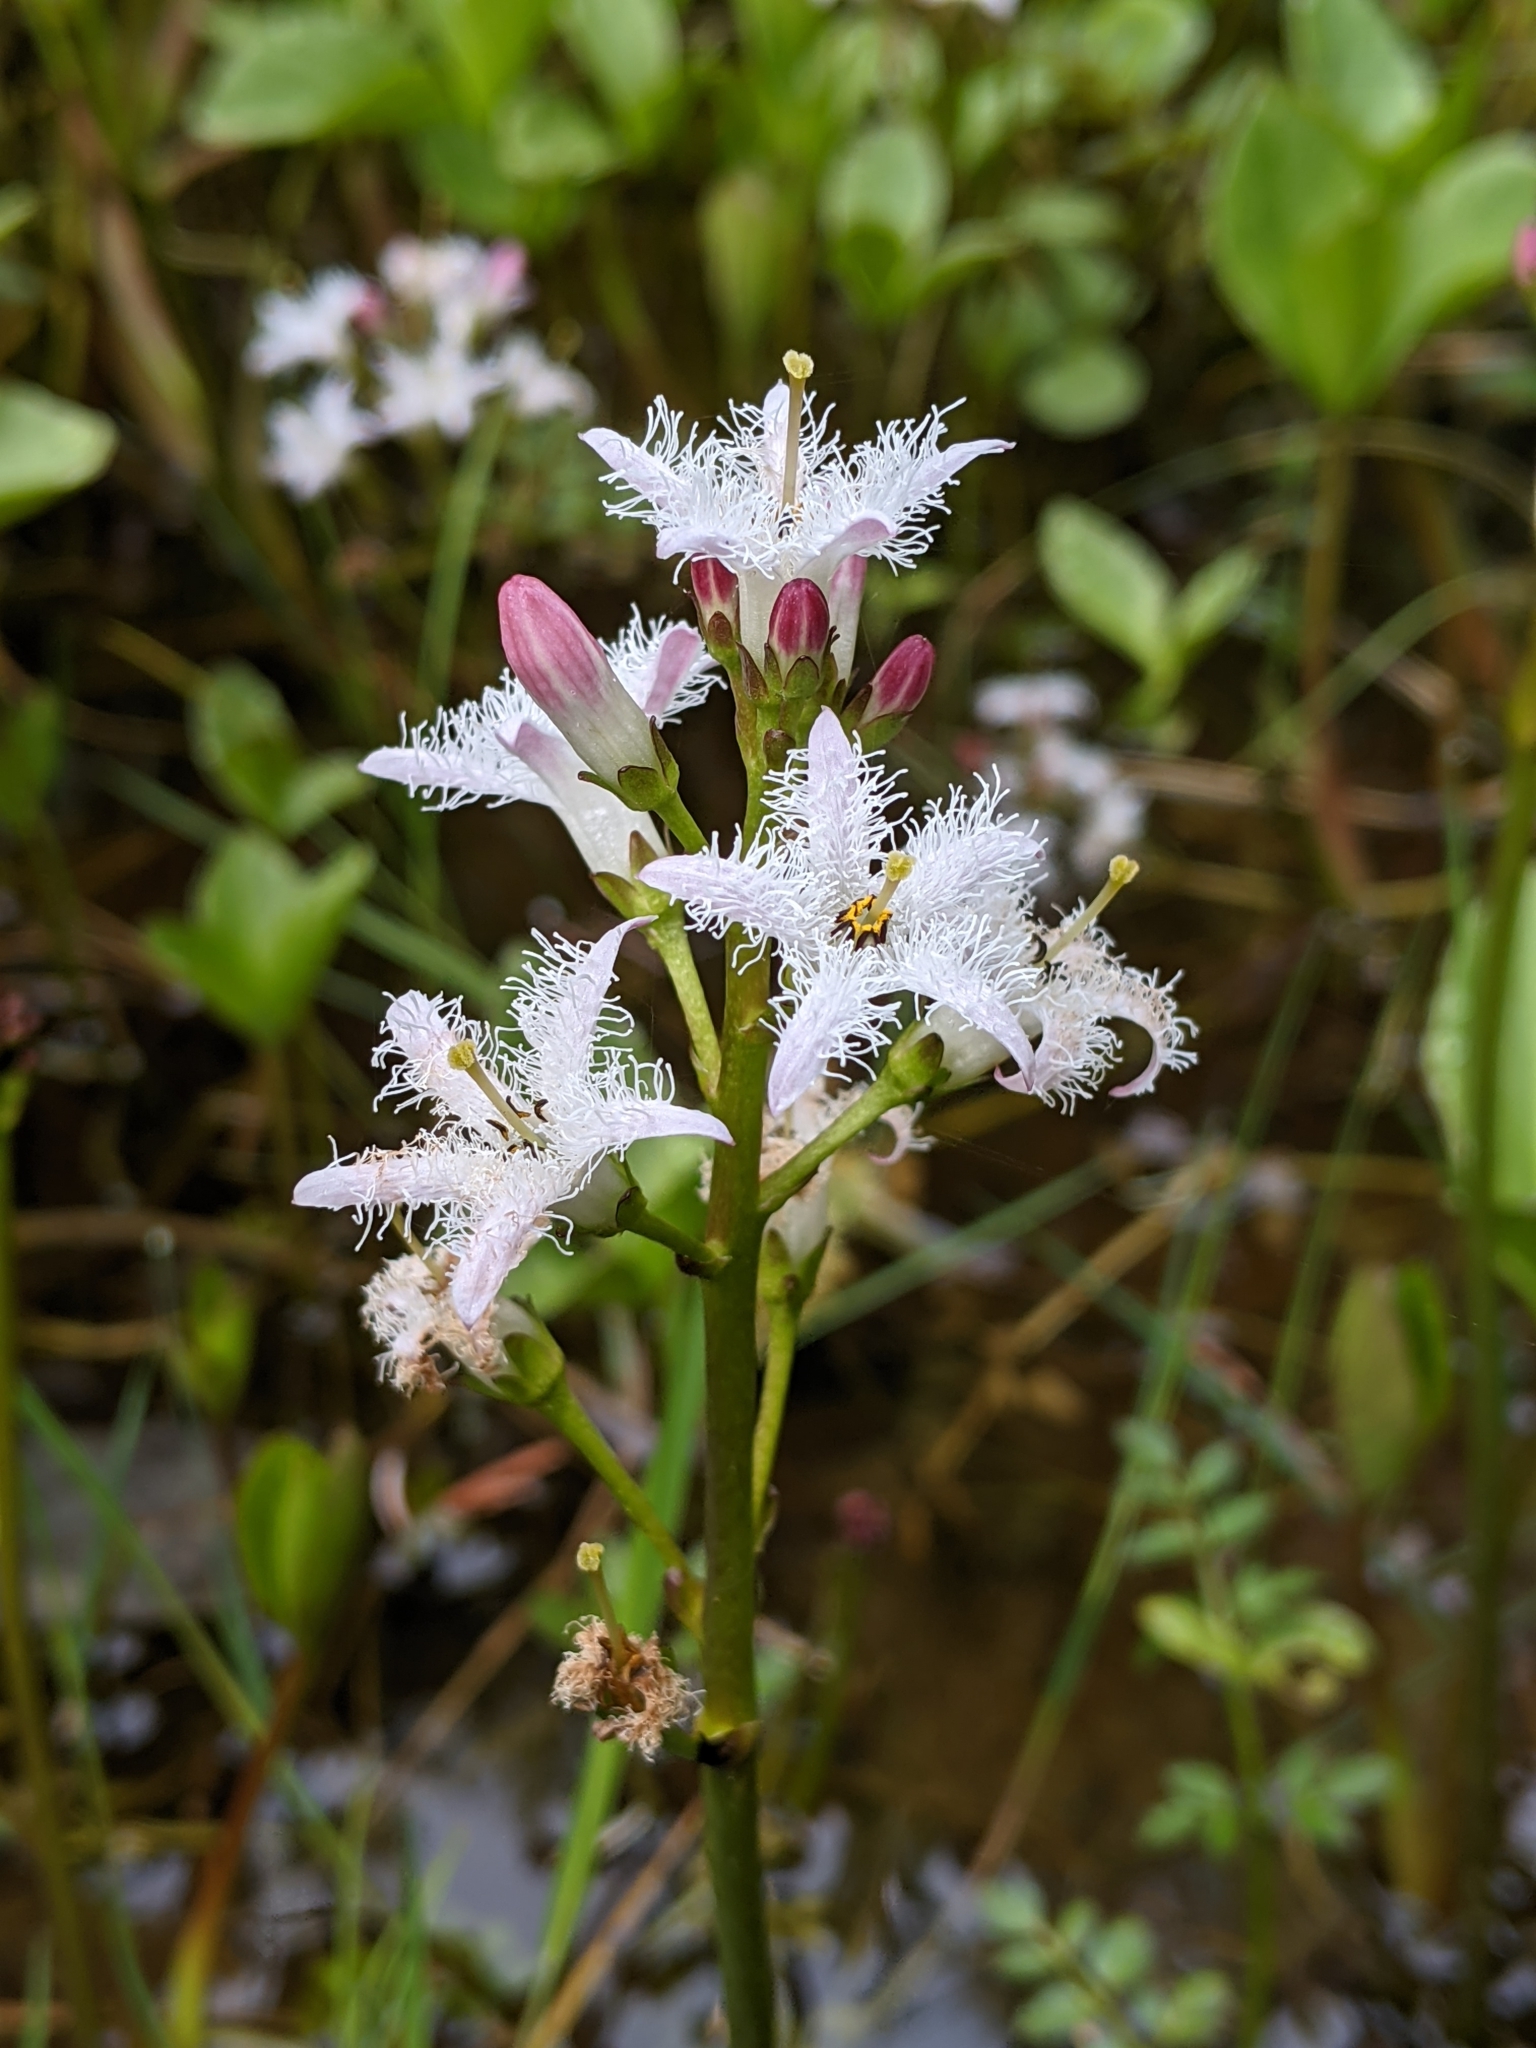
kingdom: Plantae
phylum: Tracheophyta
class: Magnoliopsida
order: Asterales
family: Menyanthaceae
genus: Menyanthes
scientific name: Menyanthes trifoliata
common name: Bogbean
